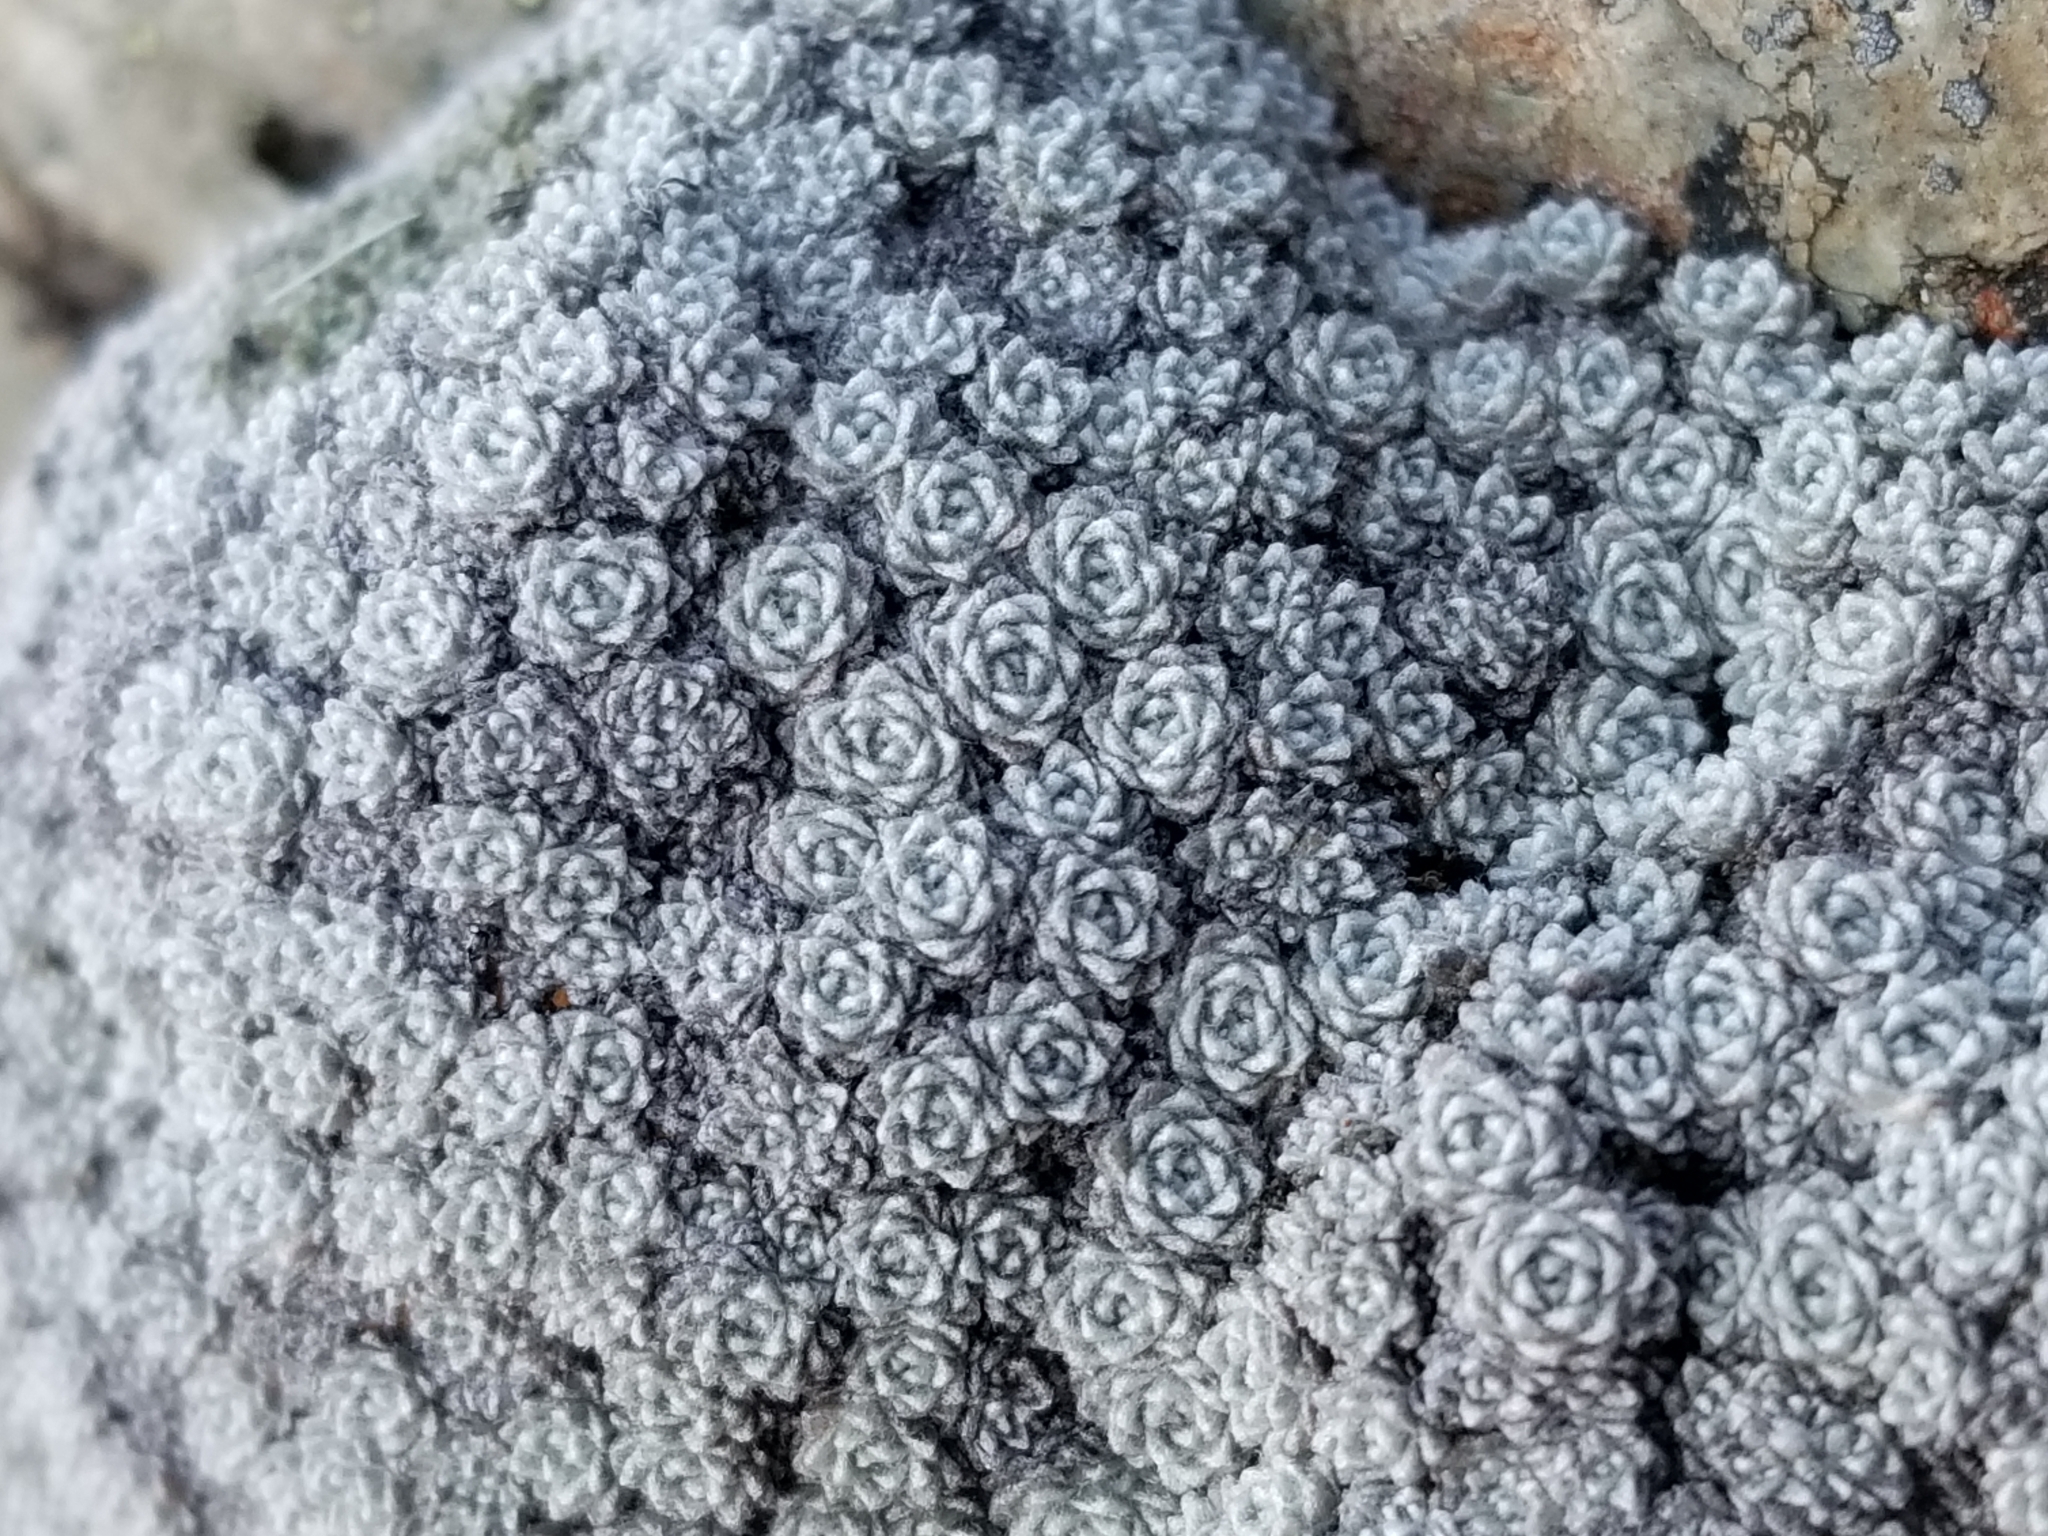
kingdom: Plantae
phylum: Tracheophyta
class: Magnoliopsida
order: Asterales
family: Asteraceae
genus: Raoulia
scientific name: Raoulia bryoides
